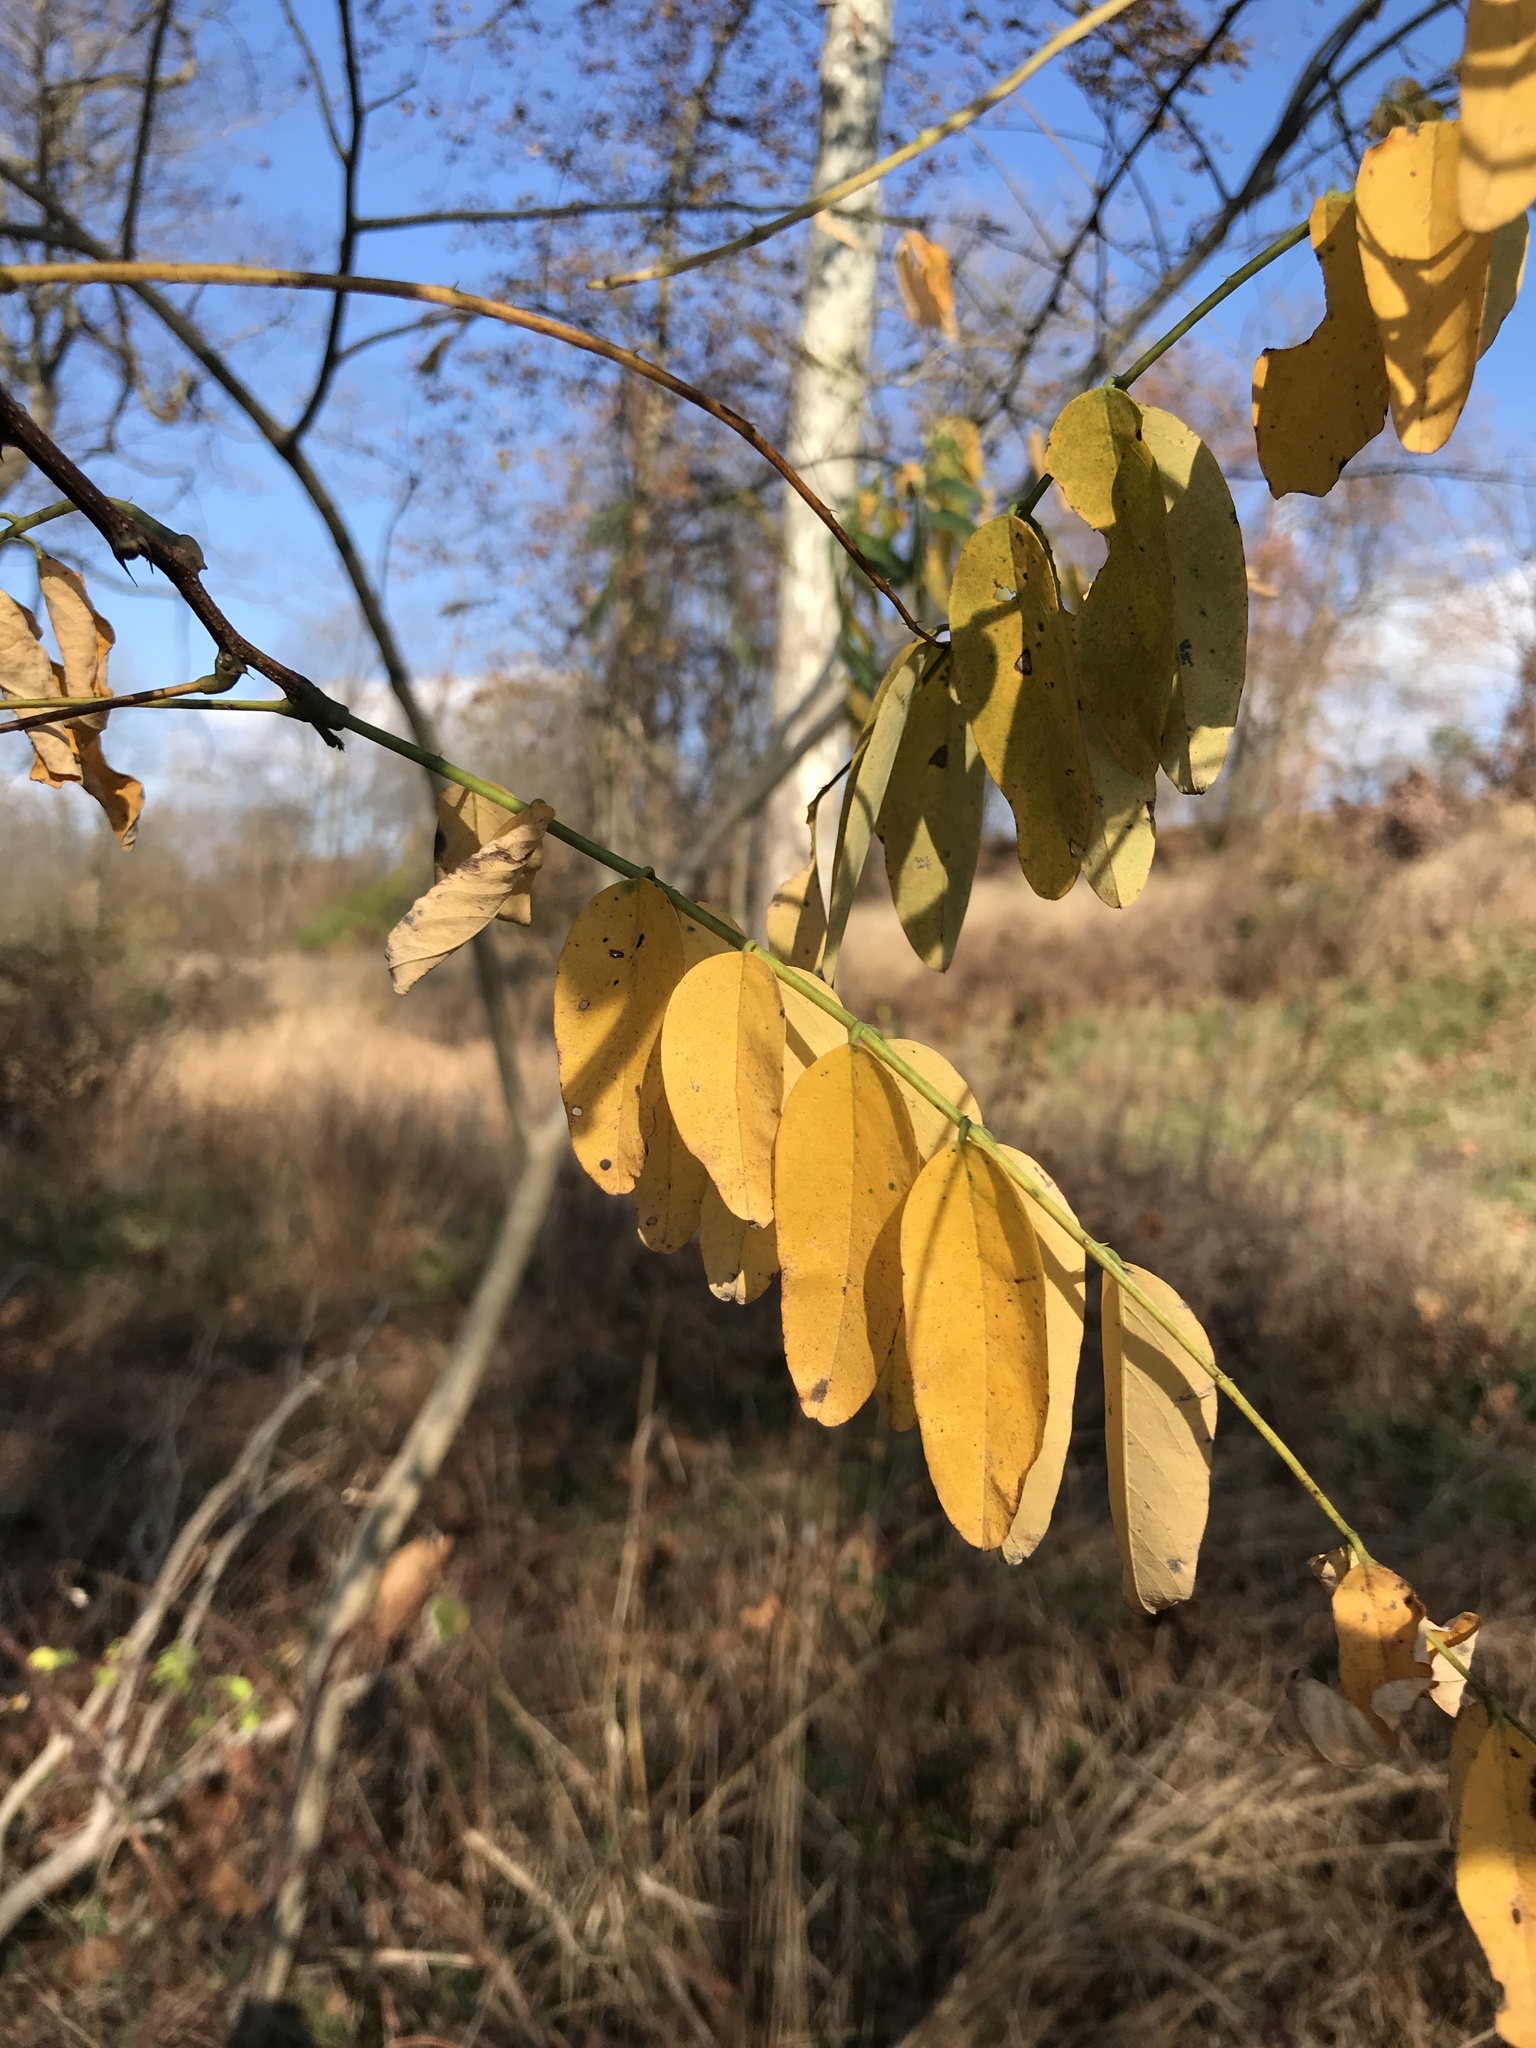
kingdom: Plantae
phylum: Tracheophyta
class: Magnoliopsida
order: Fabales
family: Fabaceae
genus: Robinia
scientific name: Robinia pseudoacacia
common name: Black locust
